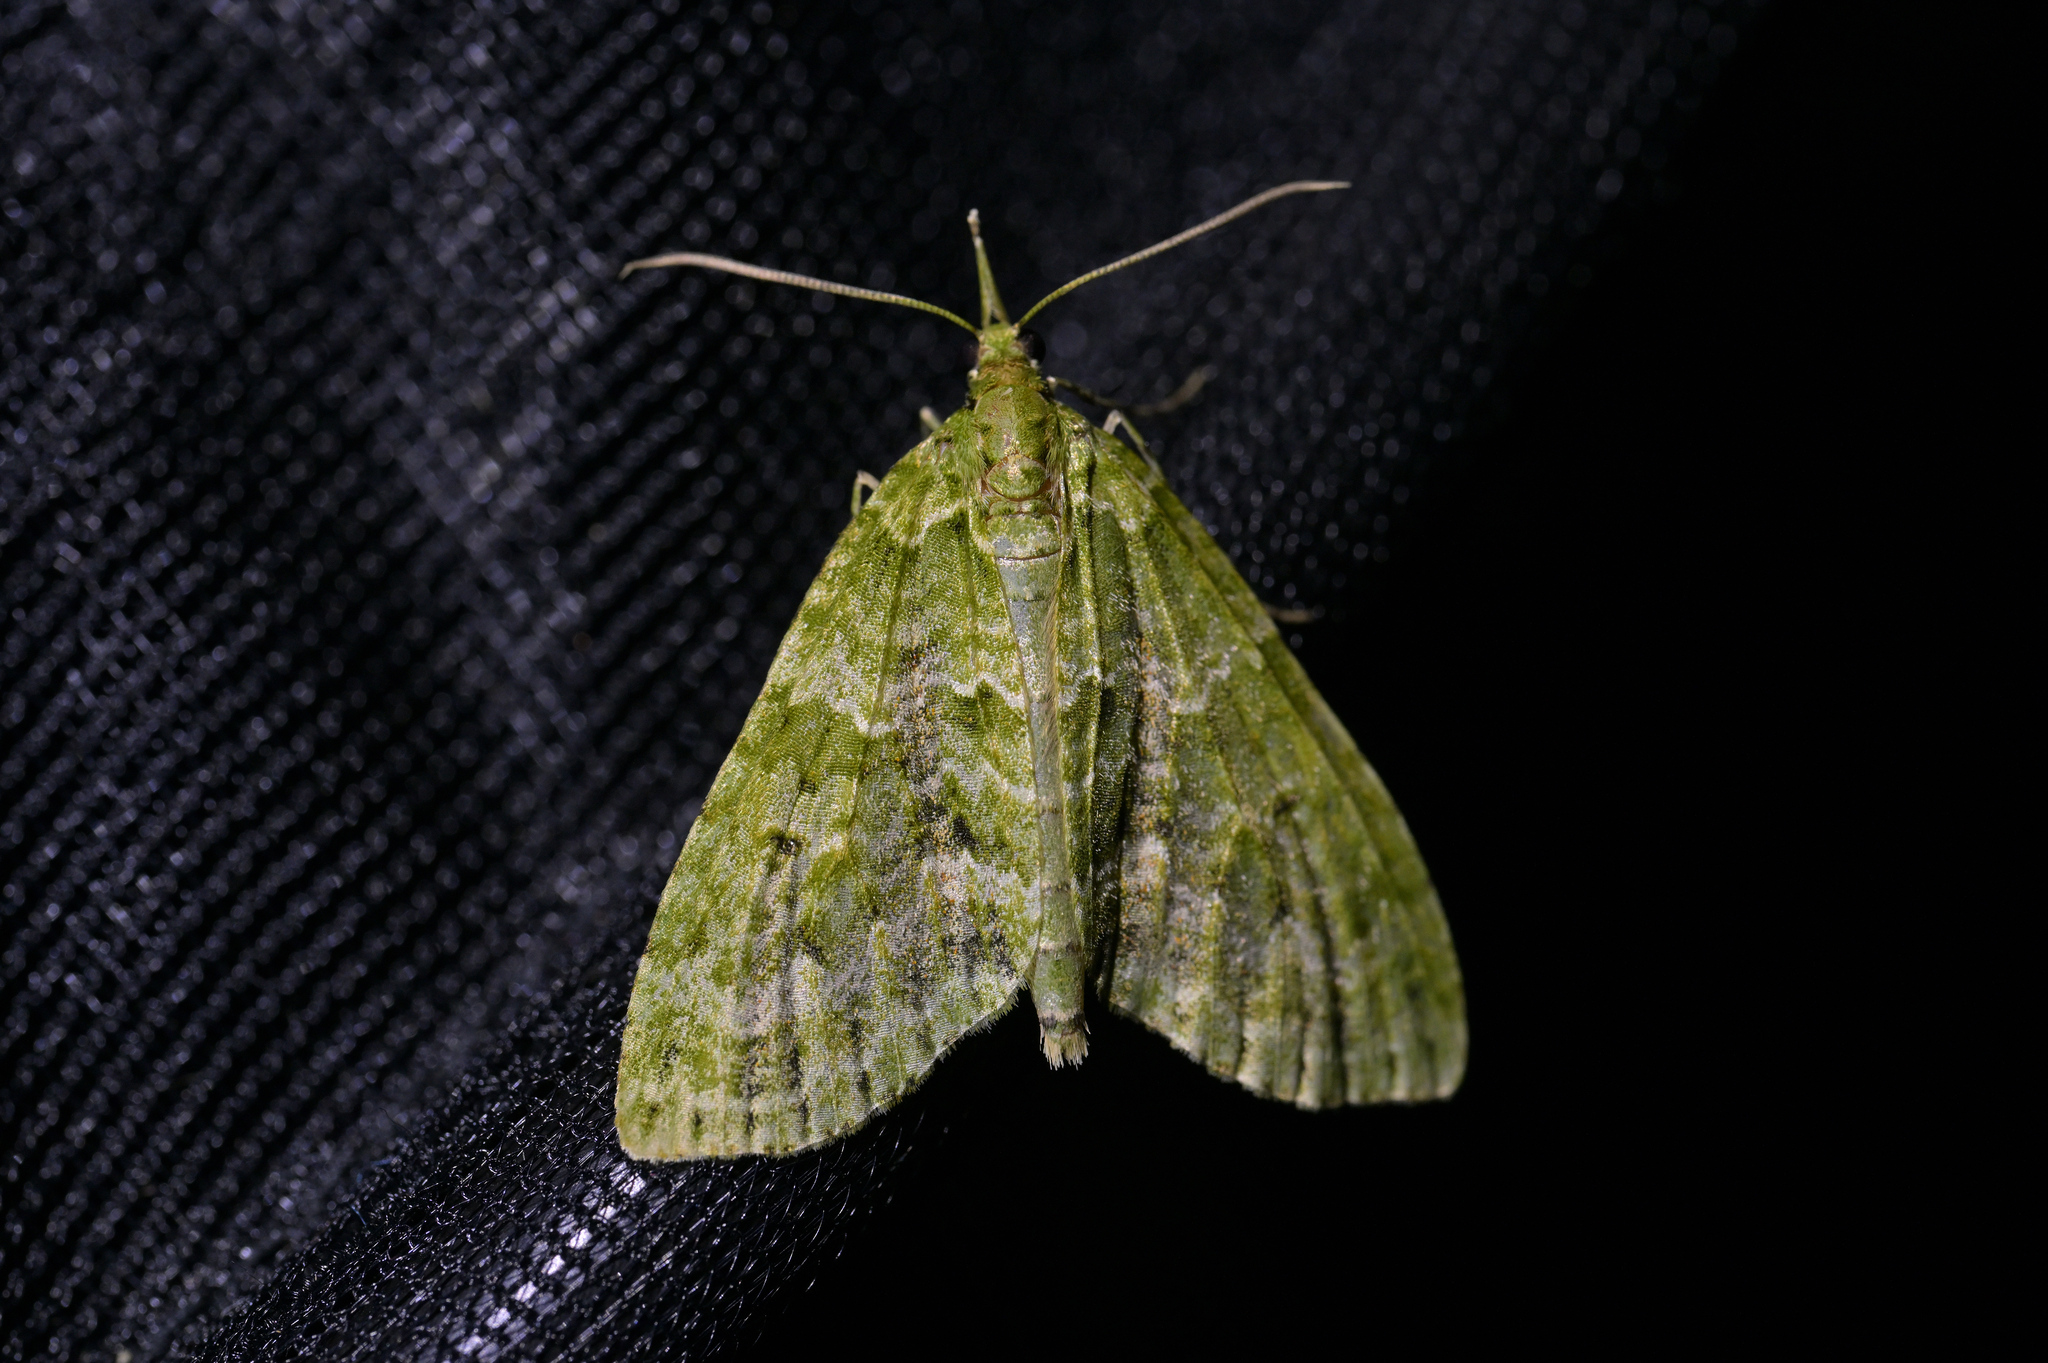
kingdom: Animalia
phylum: Arthropoda
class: Insecta
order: Lepidoptera
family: Geometridae
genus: Tatosoma
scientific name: Tatosoma tipulata
